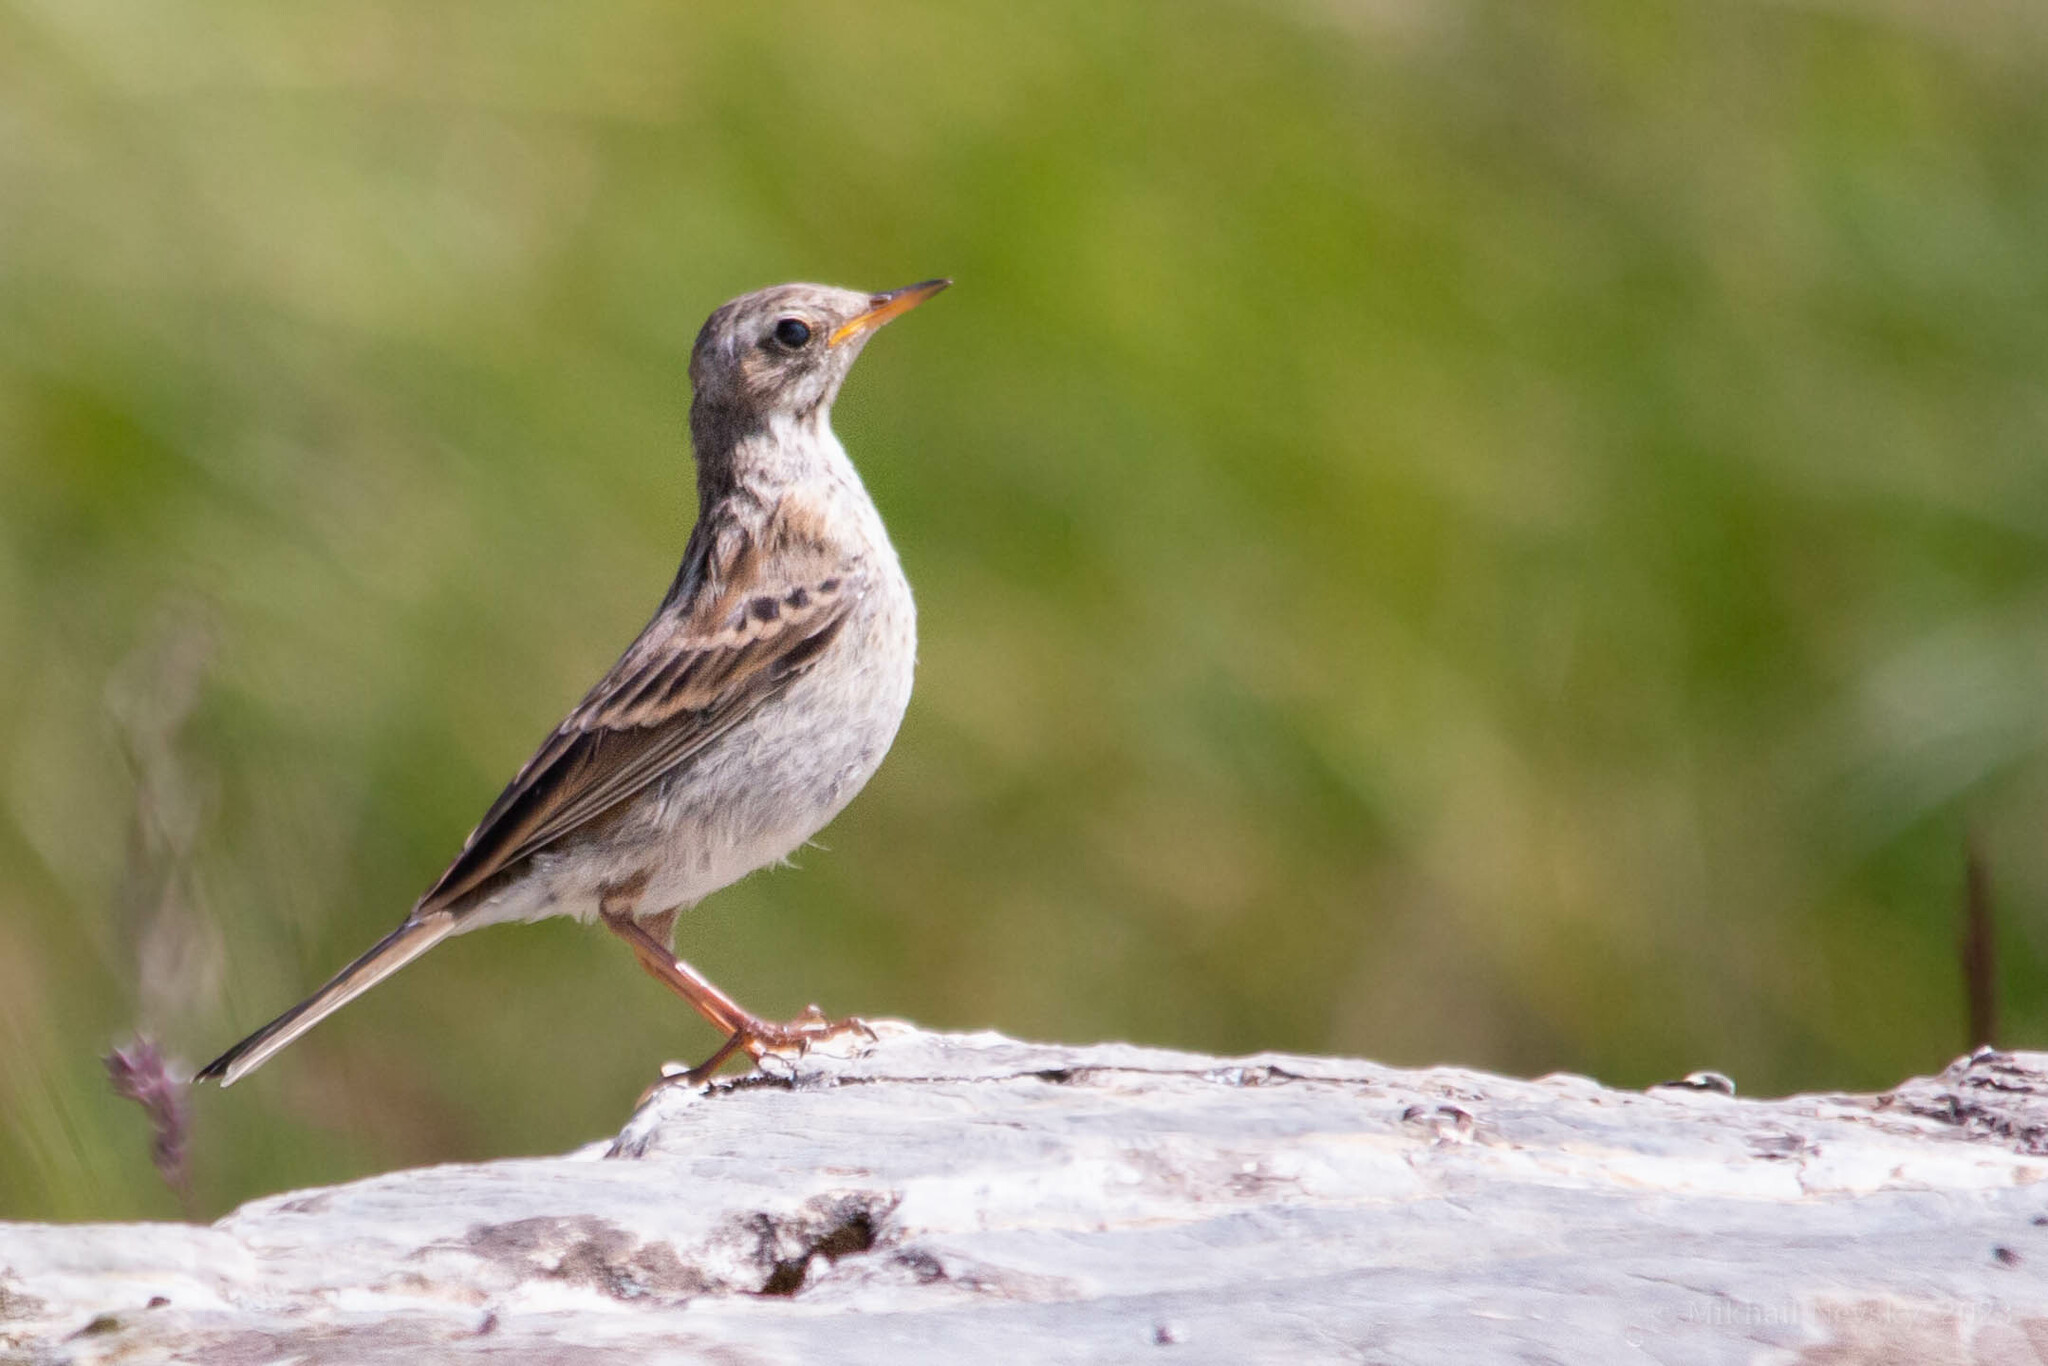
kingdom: Animalia
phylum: Chordata
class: Aves
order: Passeriformes
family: Motacillidae
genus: Anthus
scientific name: Anthus spinoletta
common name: Water pipit
